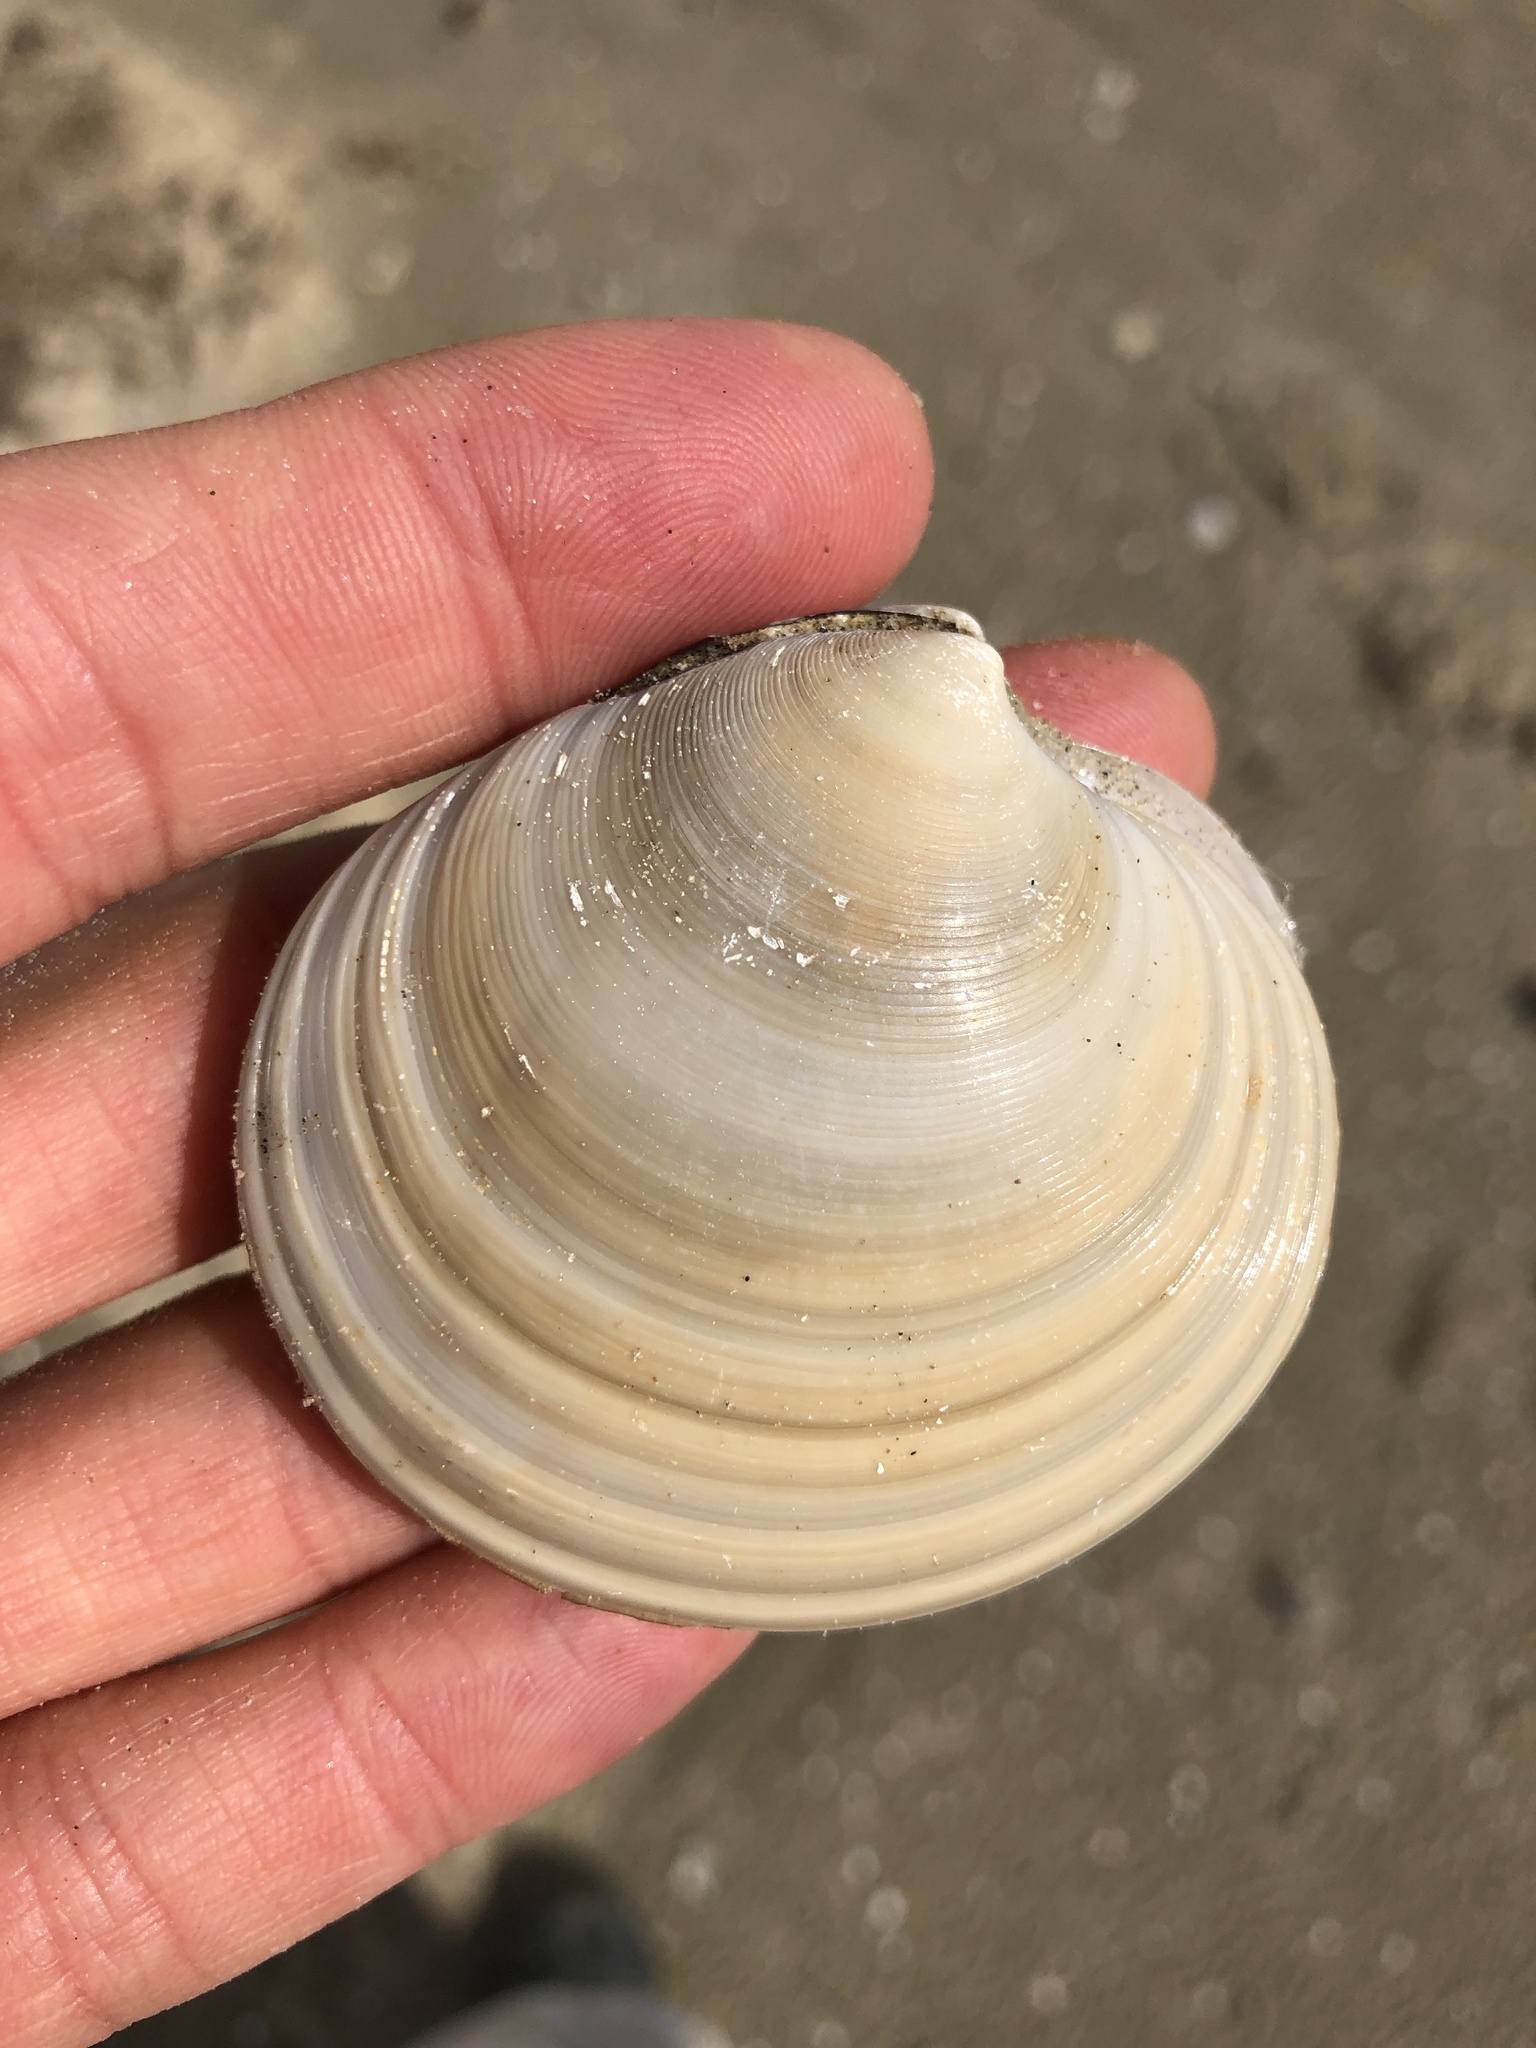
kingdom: Animalia
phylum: Mollusca
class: Bivalvia
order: Venerida
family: Veneridae
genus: Dosinia
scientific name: Dosinia discus
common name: Disk dosinia
